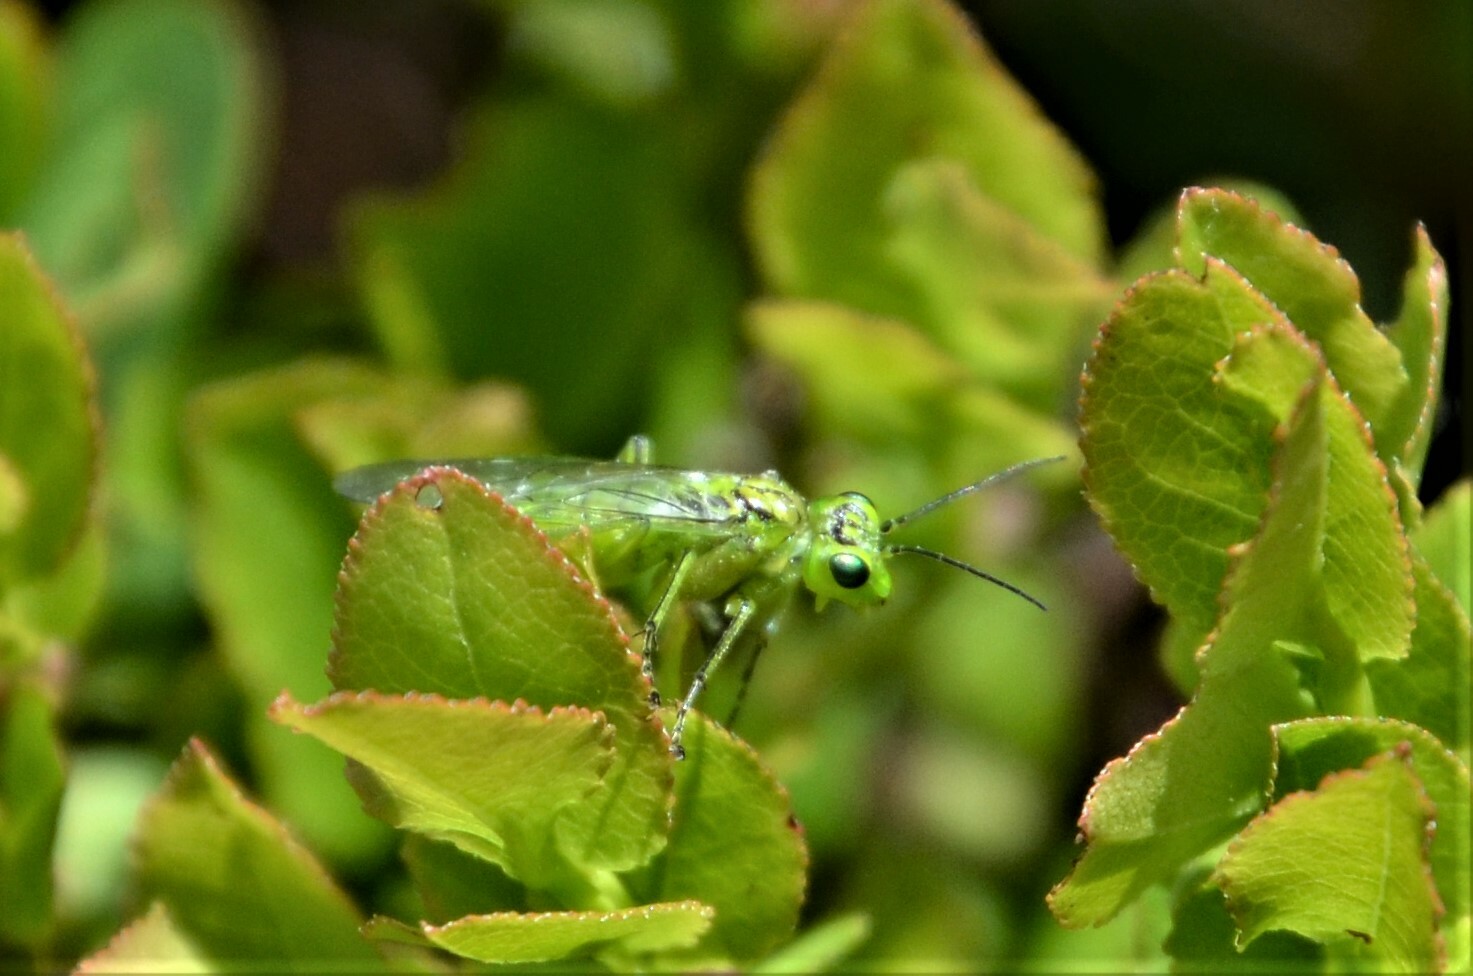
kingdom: Animalia
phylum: Arthropoda
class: Insecta
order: Hymenoptera
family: Tenthredinidae
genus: Rhogogaster
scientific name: Rhogogaster punctulata
